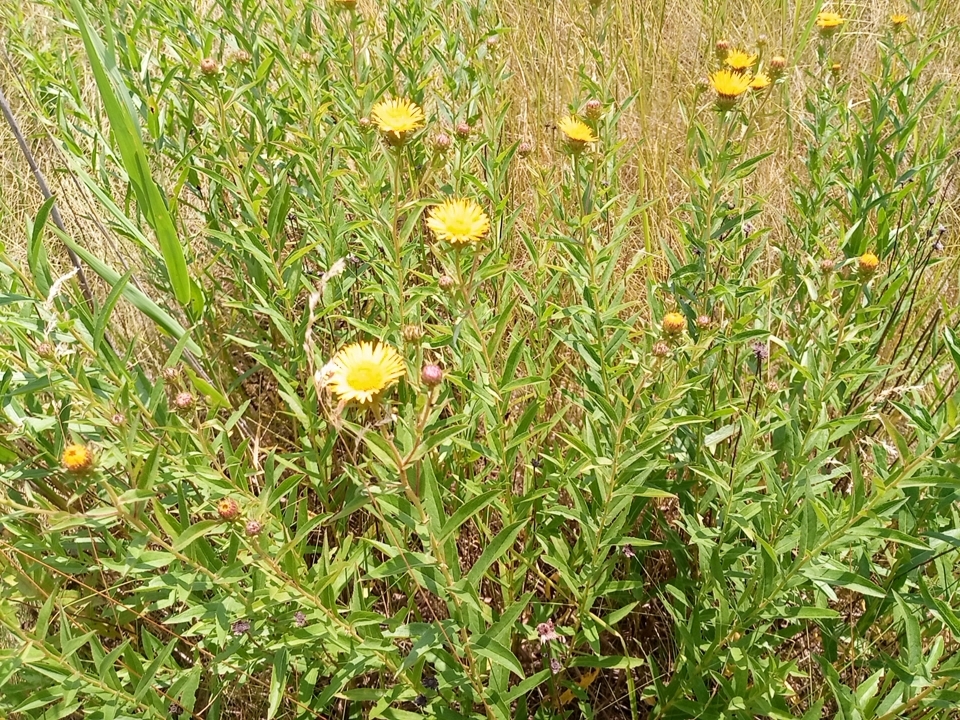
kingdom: Plantae
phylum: Tracheophyta
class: Magnoliopsida
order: Asterales
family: Asteraceae
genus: Pentanema
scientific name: Pentanema asperum
